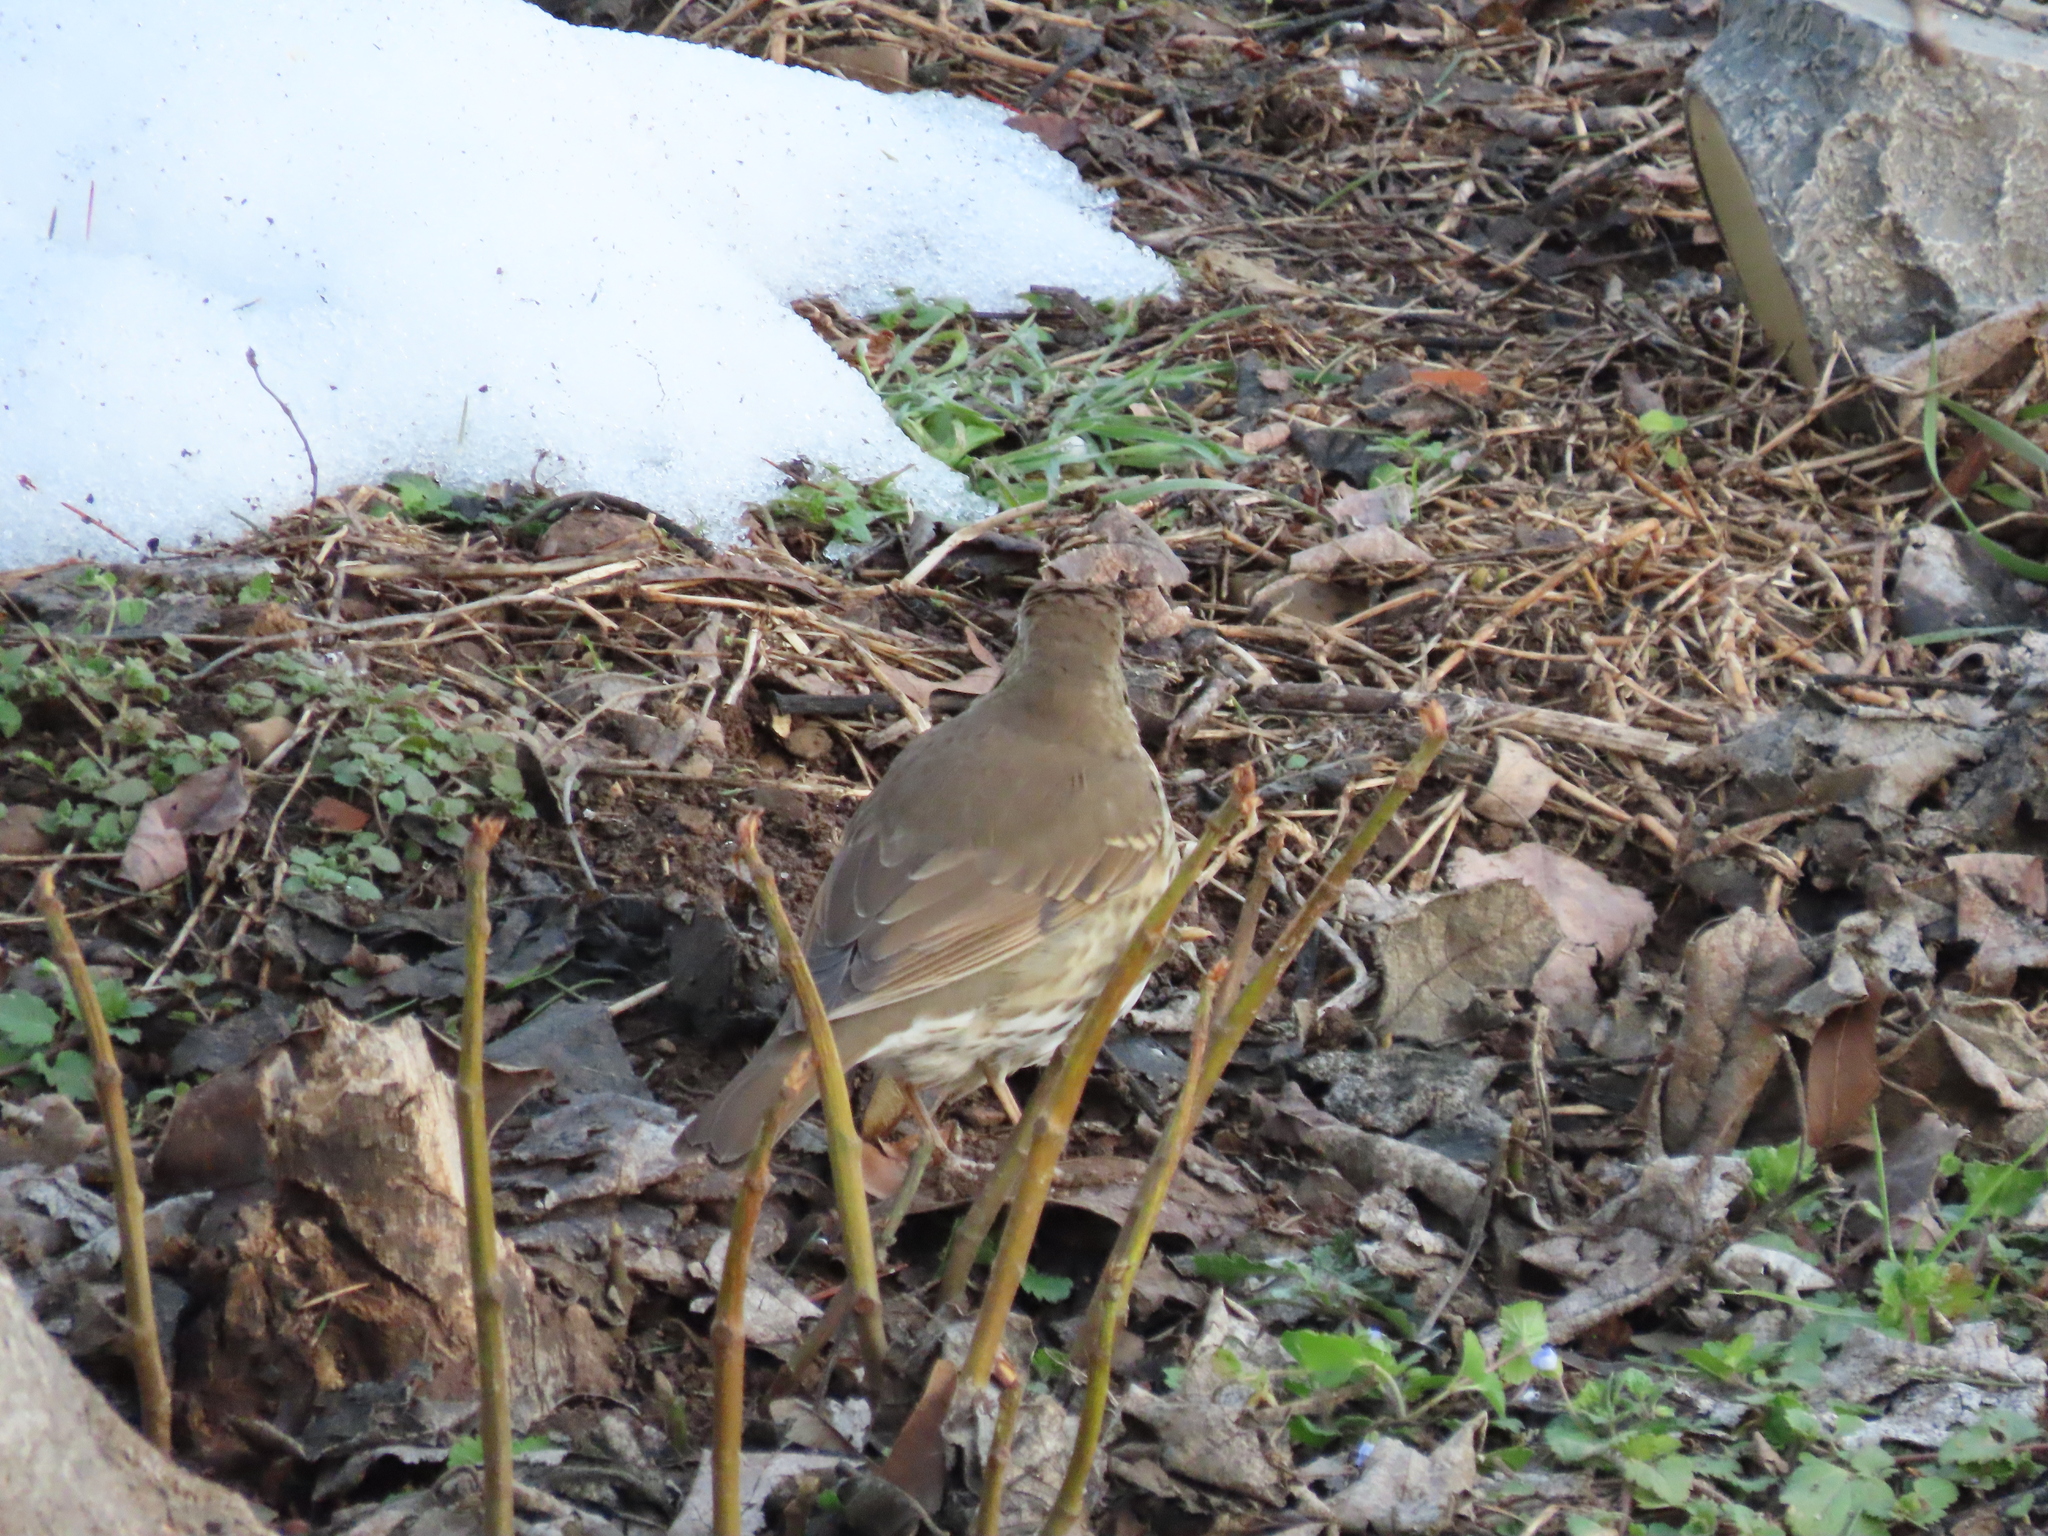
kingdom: Animalia
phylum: Chordata
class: Aves
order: Passeriformes
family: Turdidae
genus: Turdus
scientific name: Turdus philomelos
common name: Song thrush
